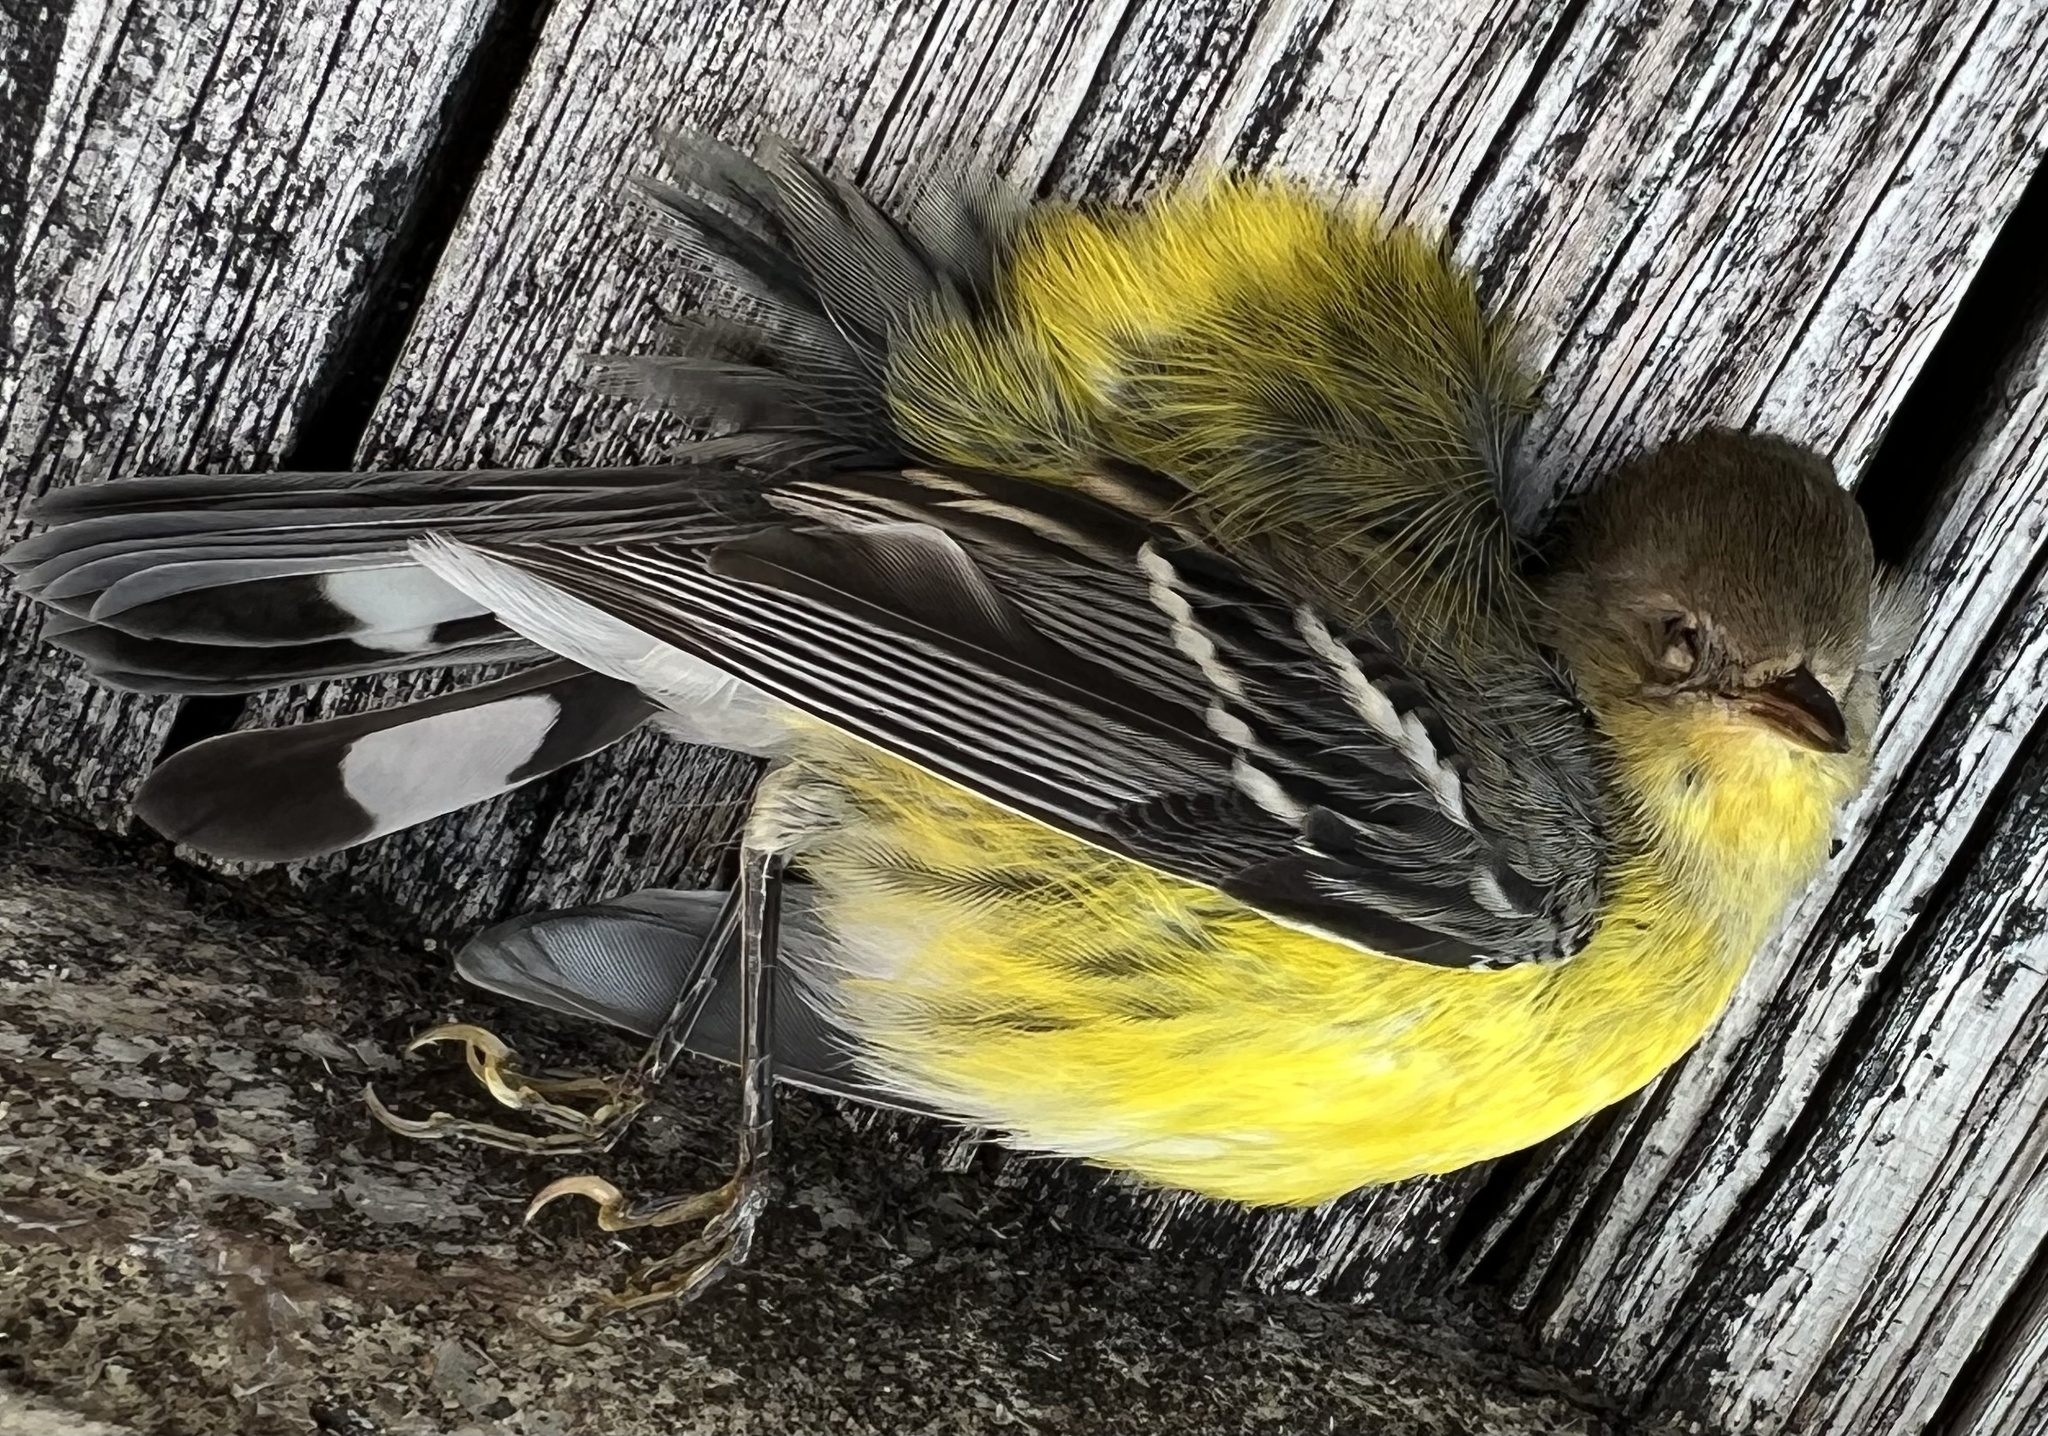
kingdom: Animalia
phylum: Chordata
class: Aves
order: Passeriformes
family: Parulidae
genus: Setophaga
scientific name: Setophaga magnolia
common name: Magnolia warbler
